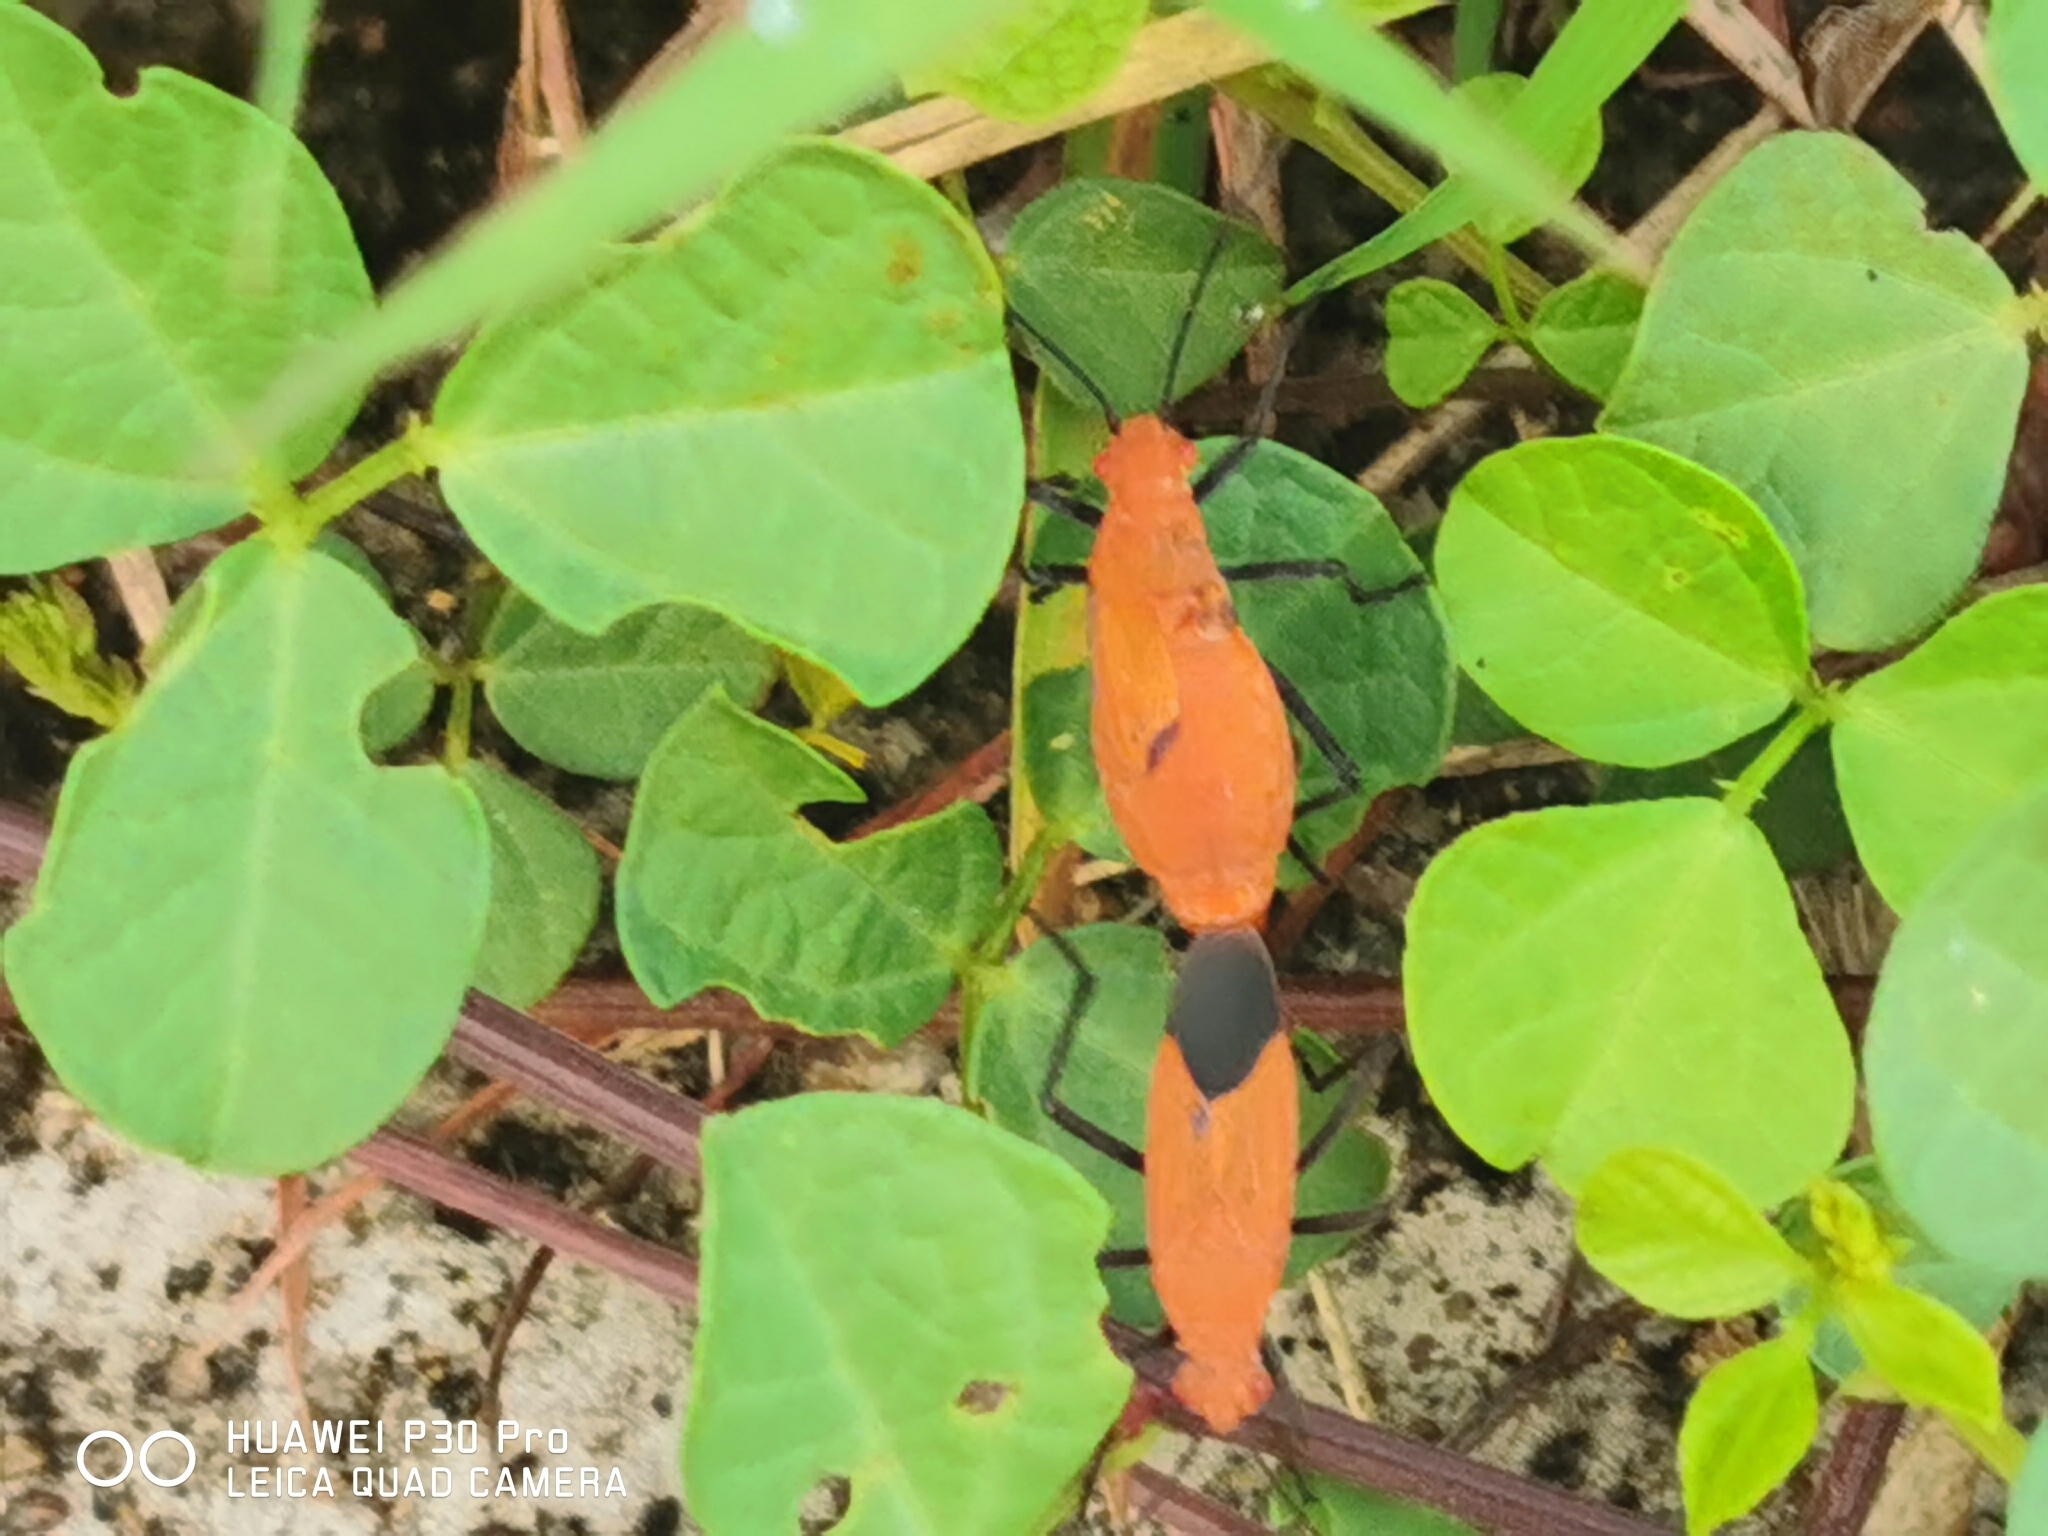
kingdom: Animalia
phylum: Arthropoda
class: Insecta
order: Hemiptera
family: Rhopalidae
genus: Leptocoris
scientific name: Leptocoris augur
